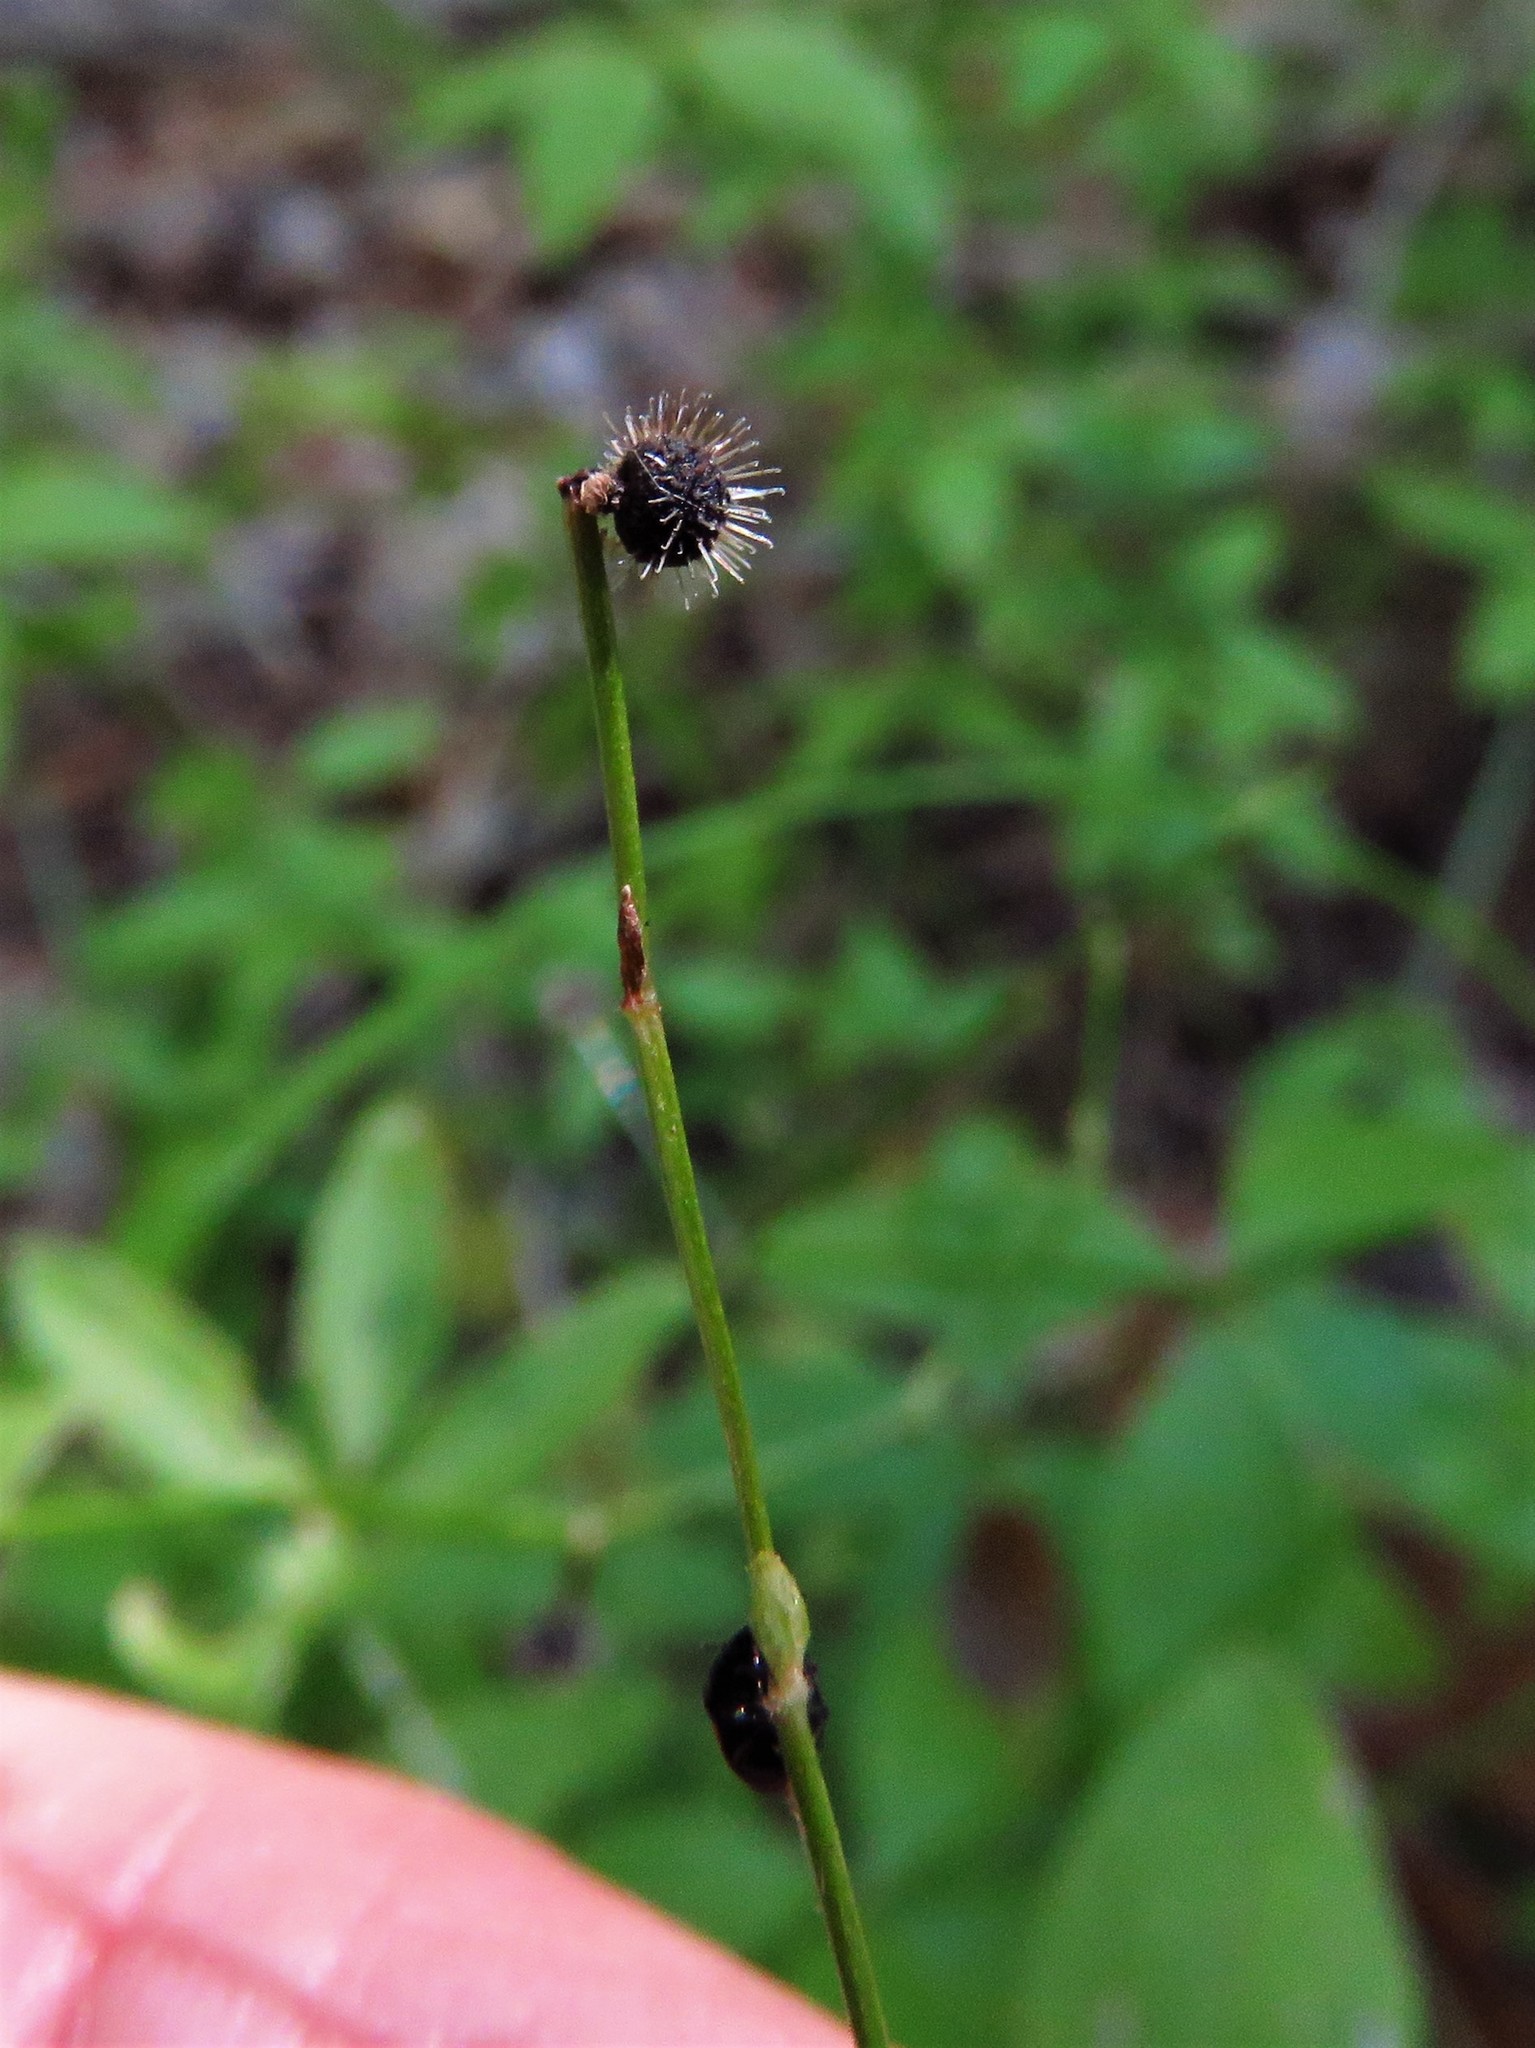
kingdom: Plantae
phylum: Tracheophyta
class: Magnoliopsida
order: Gentianales
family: Rubiaceae
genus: Galium
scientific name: Galium circaezans
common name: Forest bedstraw
